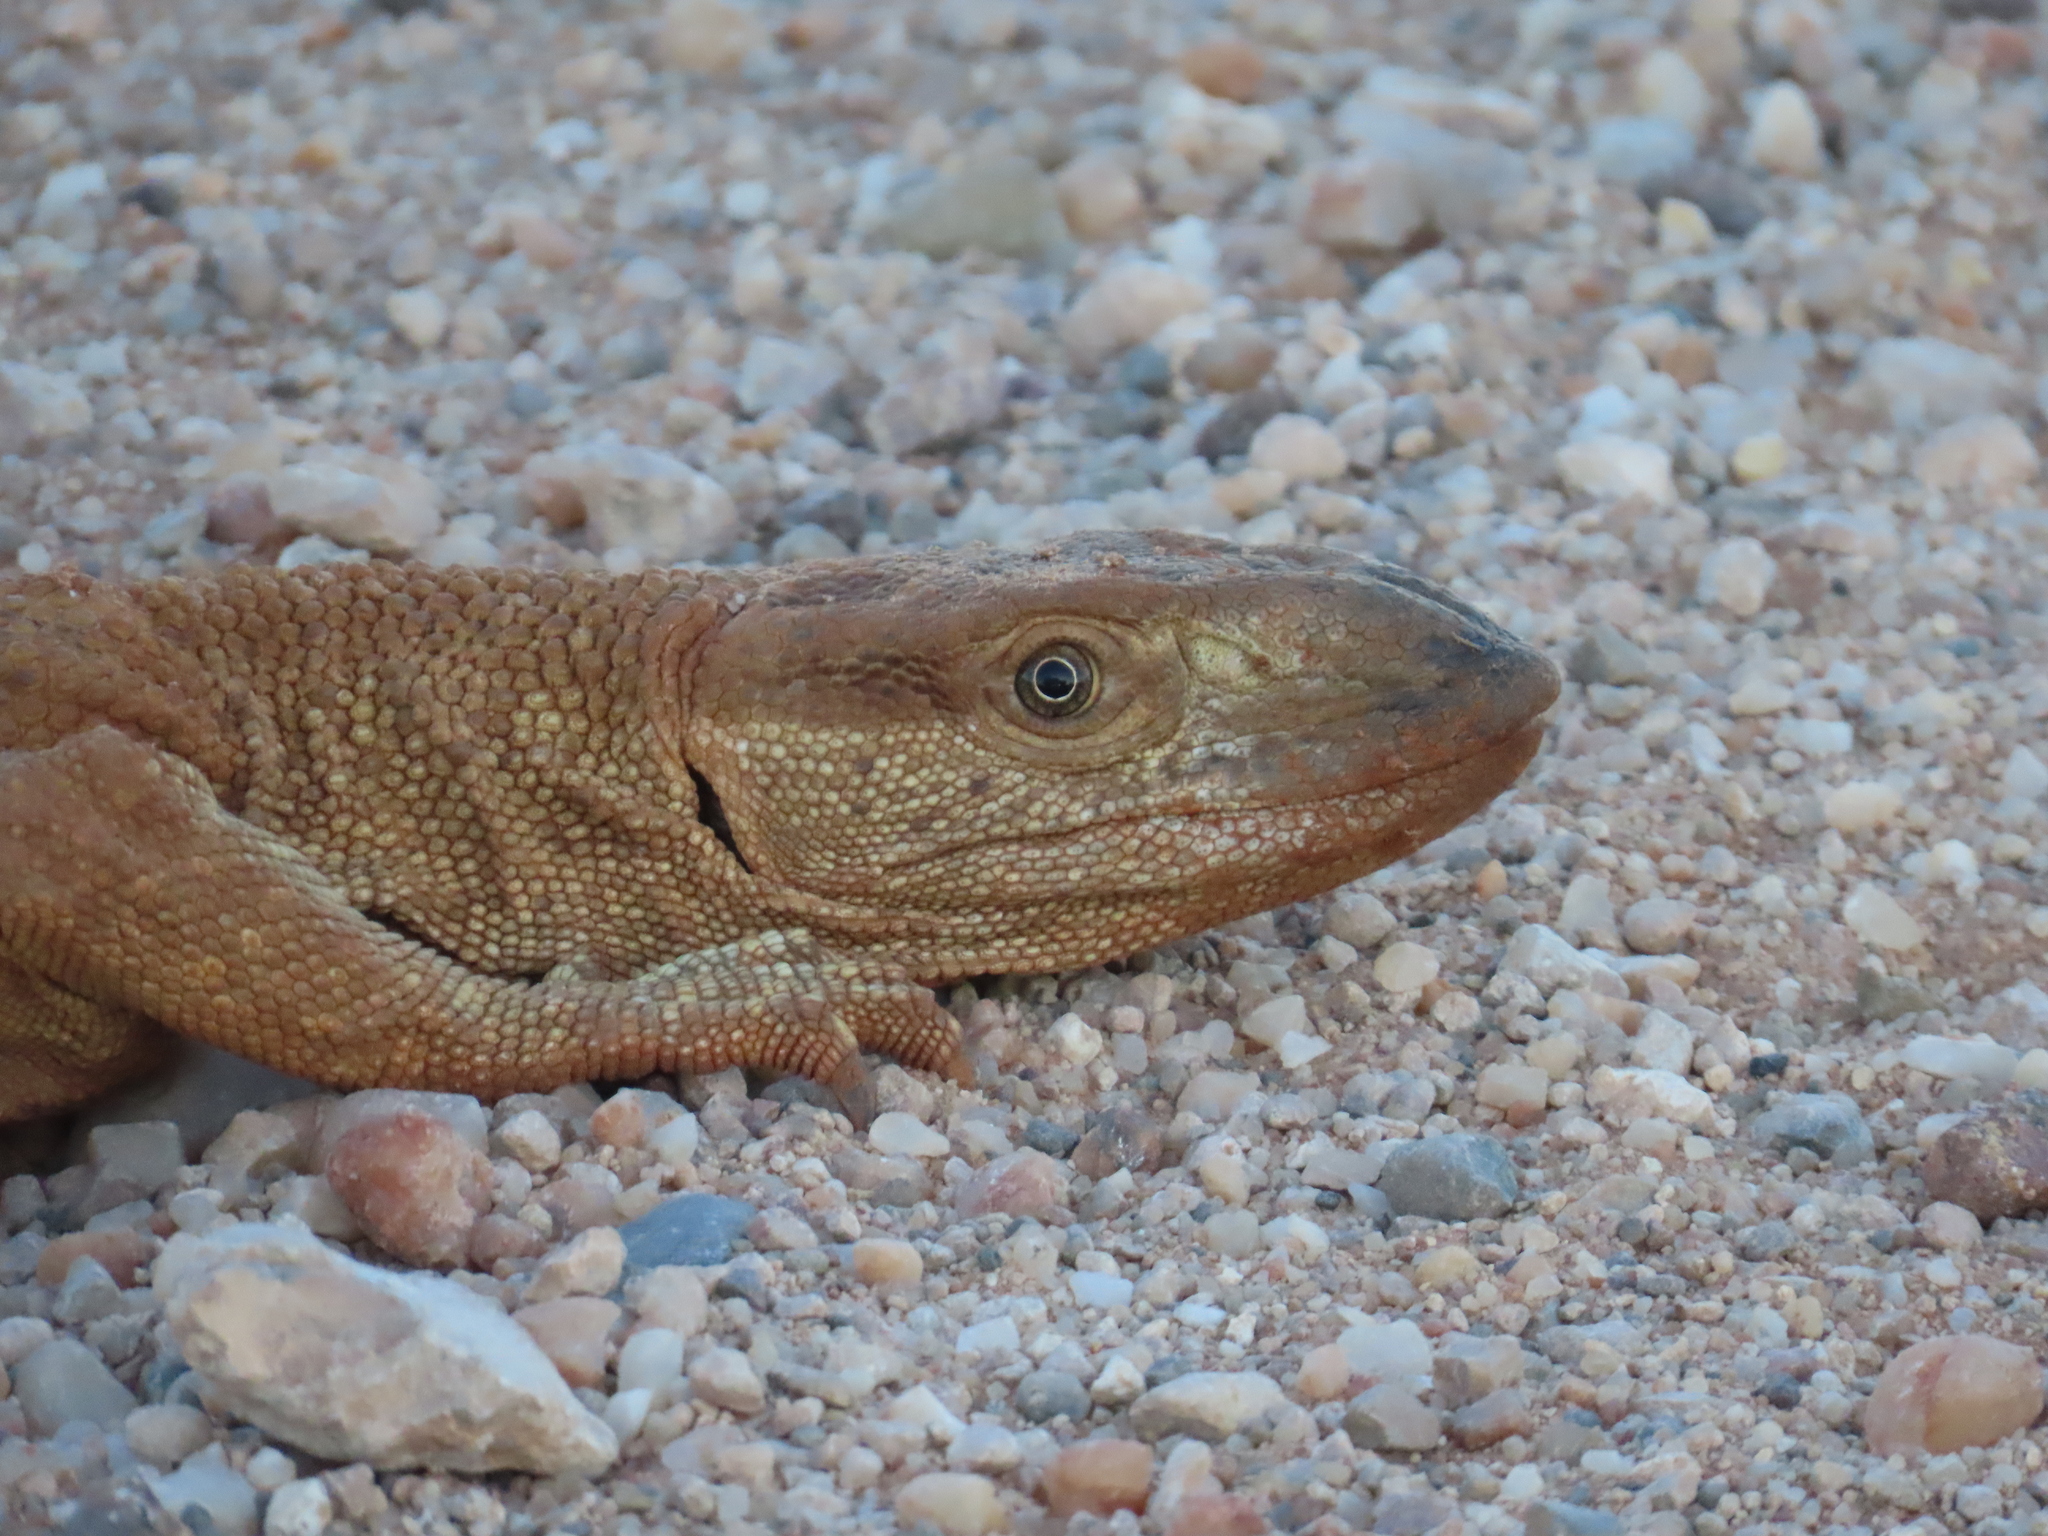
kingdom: Animalia
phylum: Chordata
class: Squamata
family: Varanidae
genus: Varanus
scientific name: Varanus albigularis
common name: White-throated monitor
